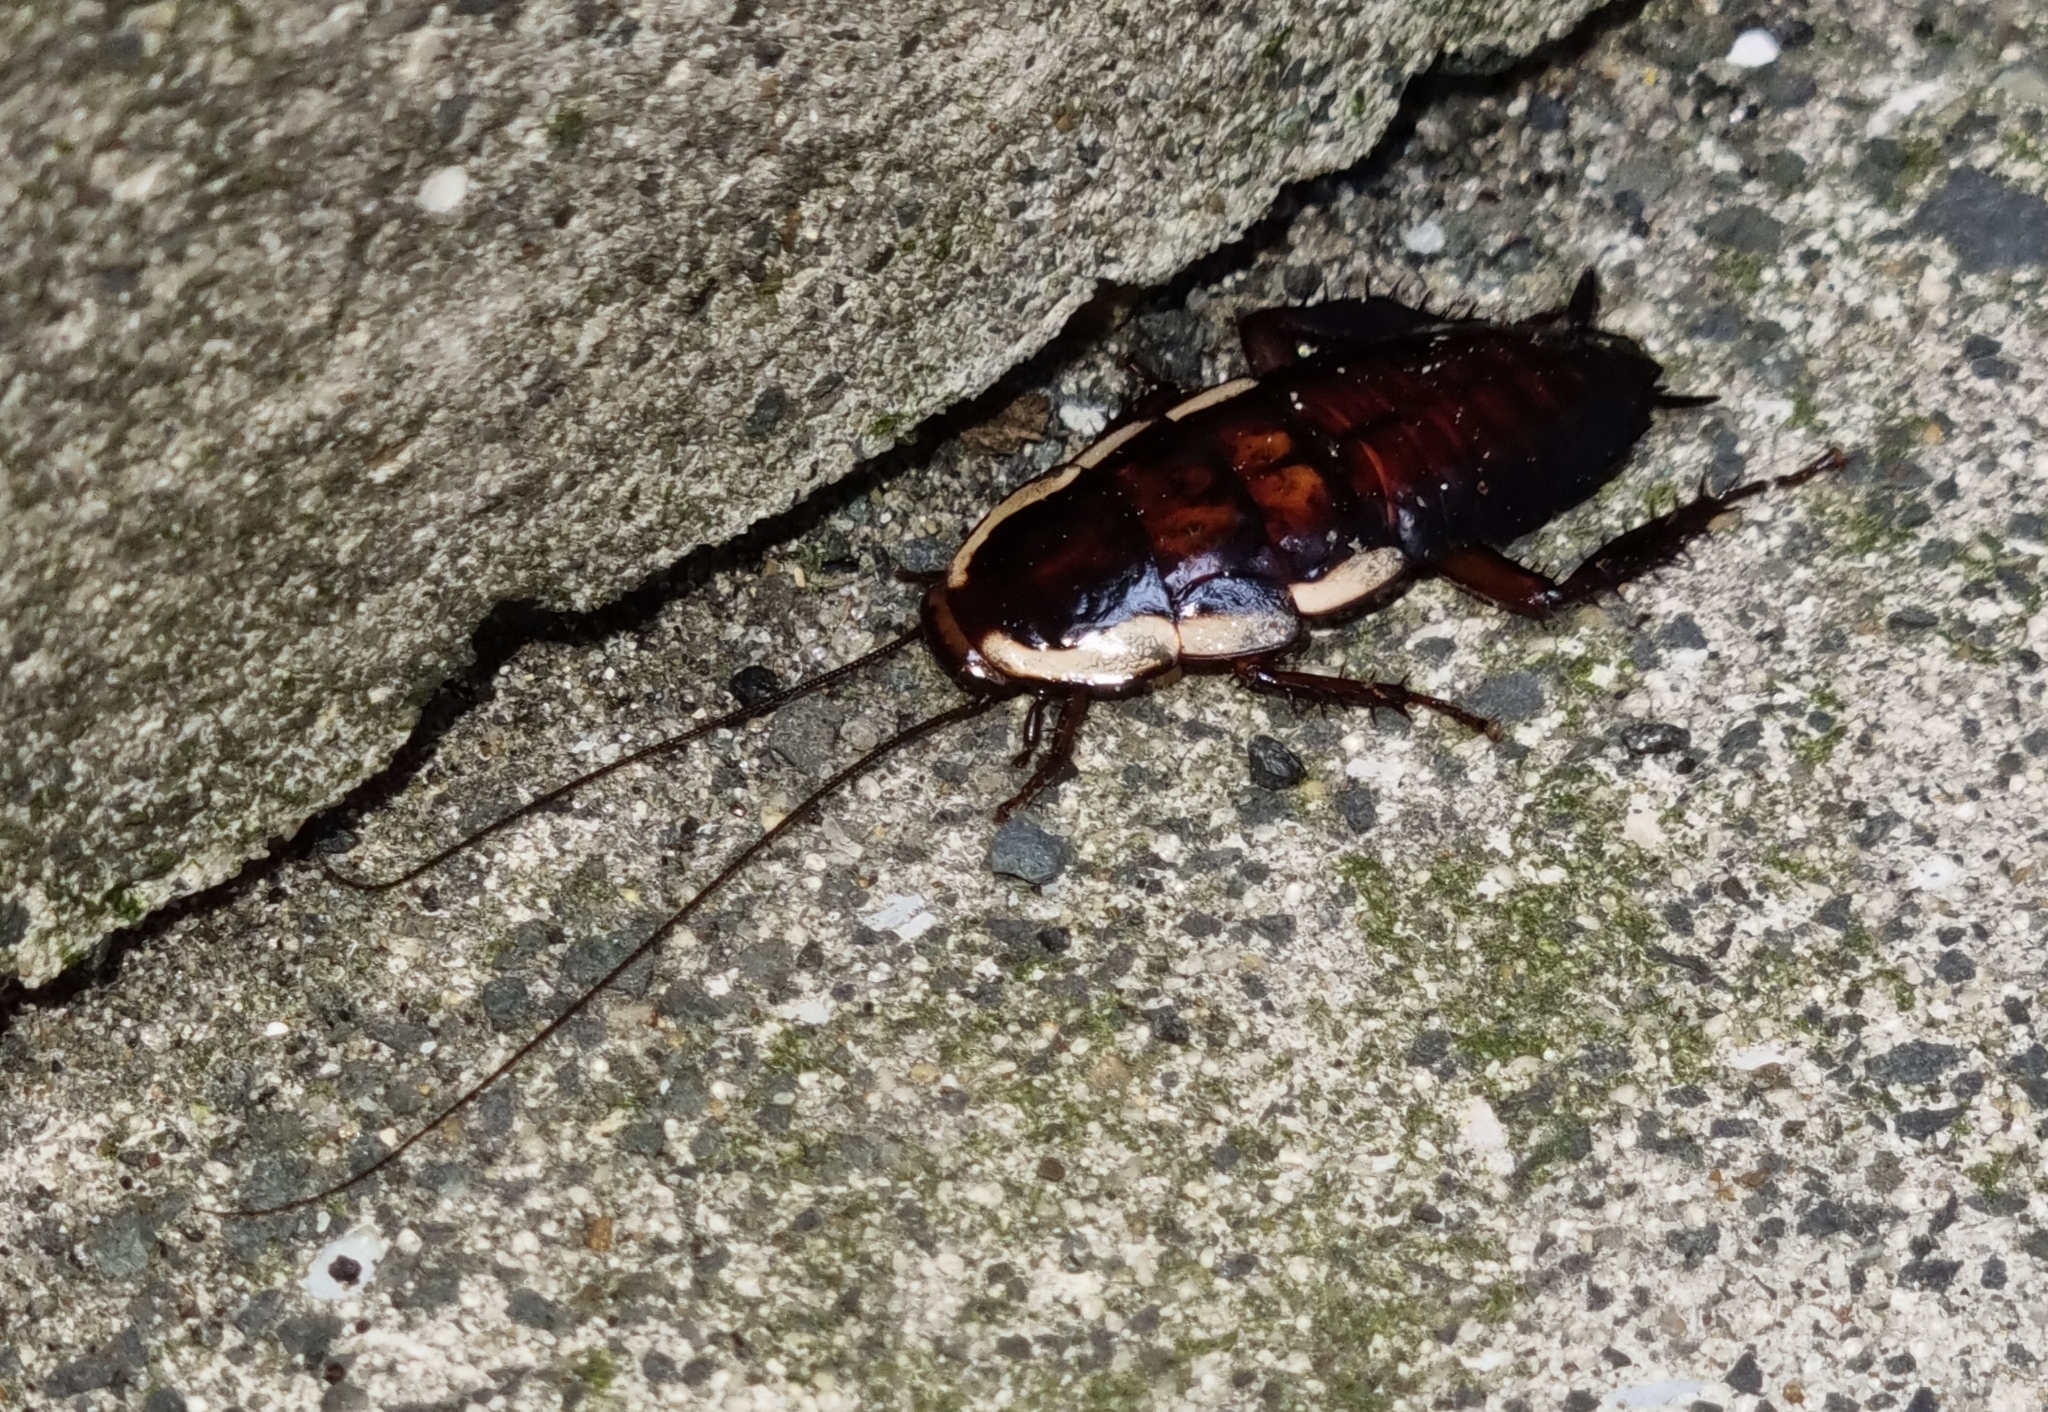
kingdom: Animalia
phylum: Arthropoda
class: Insecta
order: Blattodea
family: Blattidae
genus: Drymaplaneta
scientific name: Drymaplaneta semivitta
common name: Gisborne cockroach
